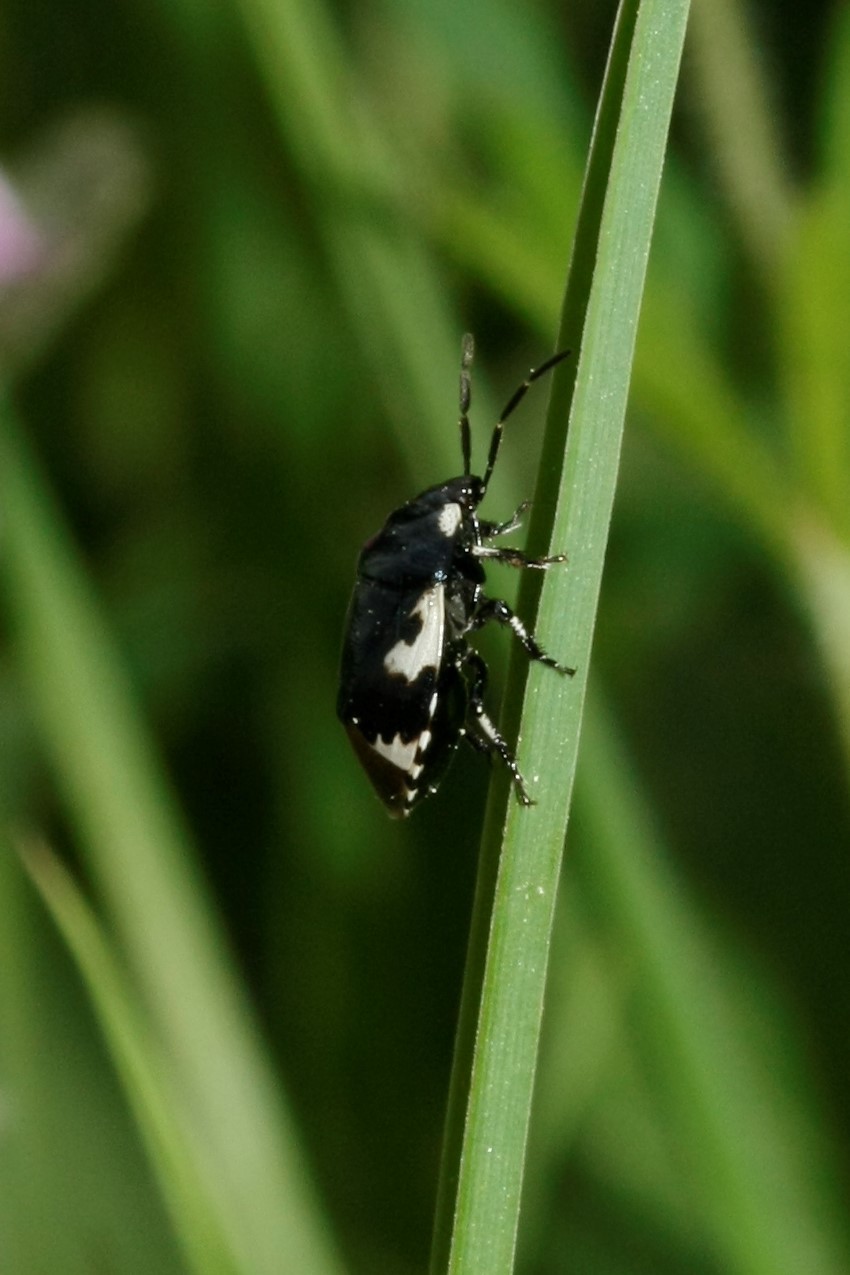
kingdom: Animalia
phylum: Arthropoda
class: Insecta
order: Hemiptera
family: Cydnidae
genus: Tritomegas
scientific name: Tritomegas bicolor
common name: Pied shieldbug
